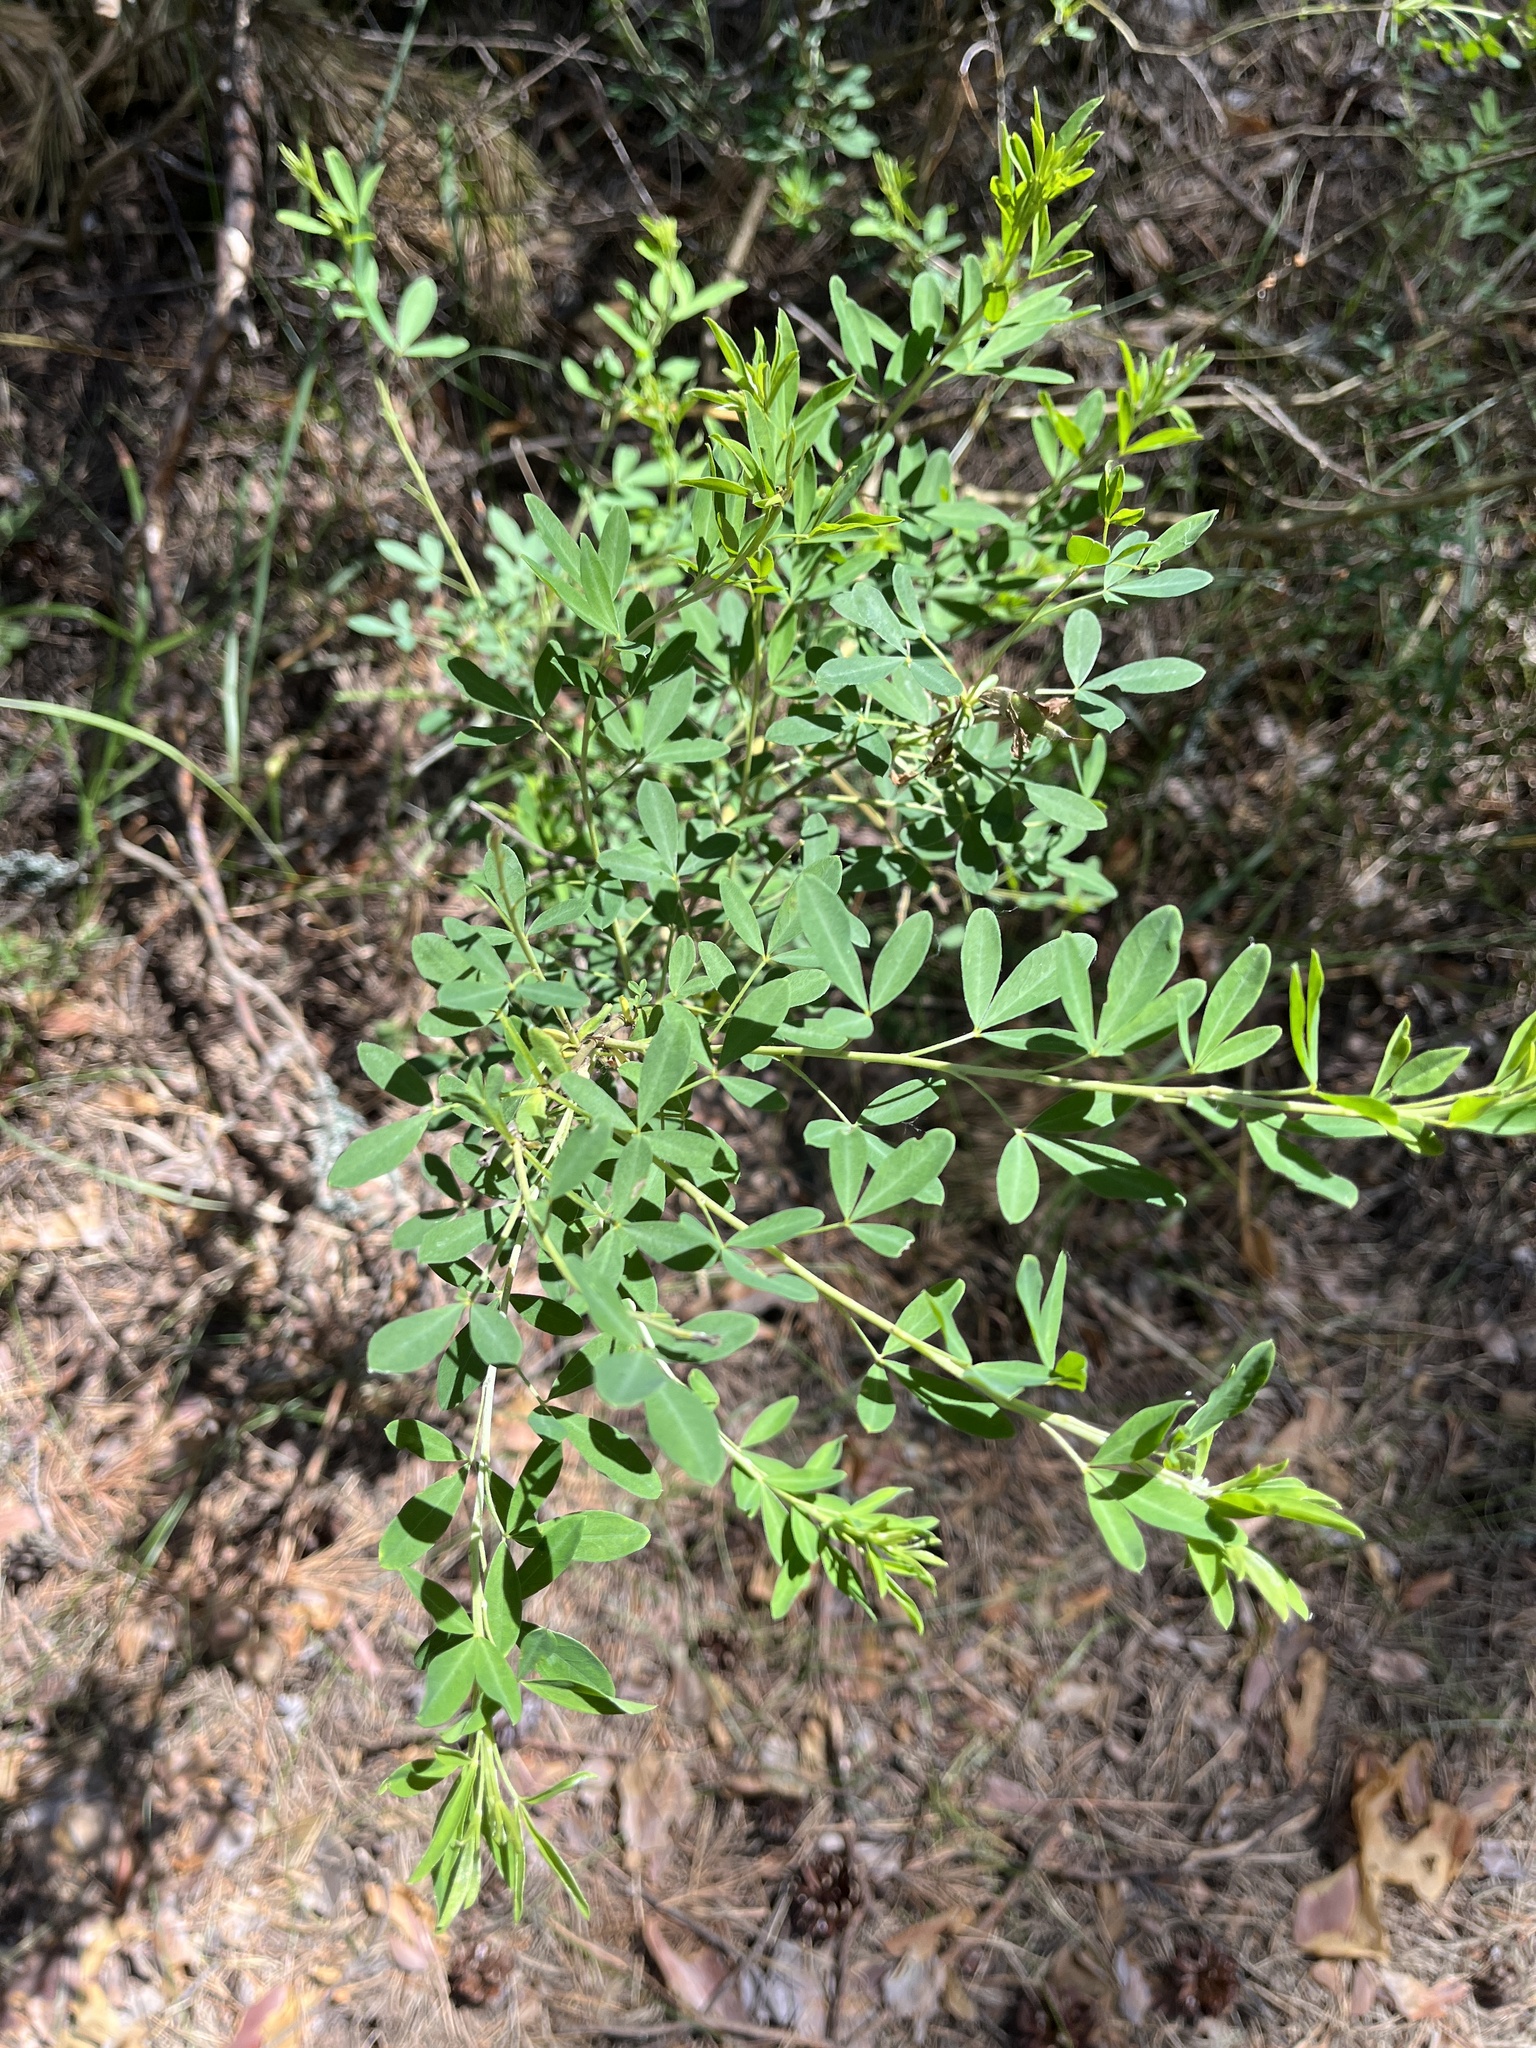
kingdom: Plantae
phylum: Tracheophyta
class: Magnoliopsida
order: Fabales
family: Fabaceae
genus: Chamaecytisus
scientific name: Chamaecytisus ruthenicus
